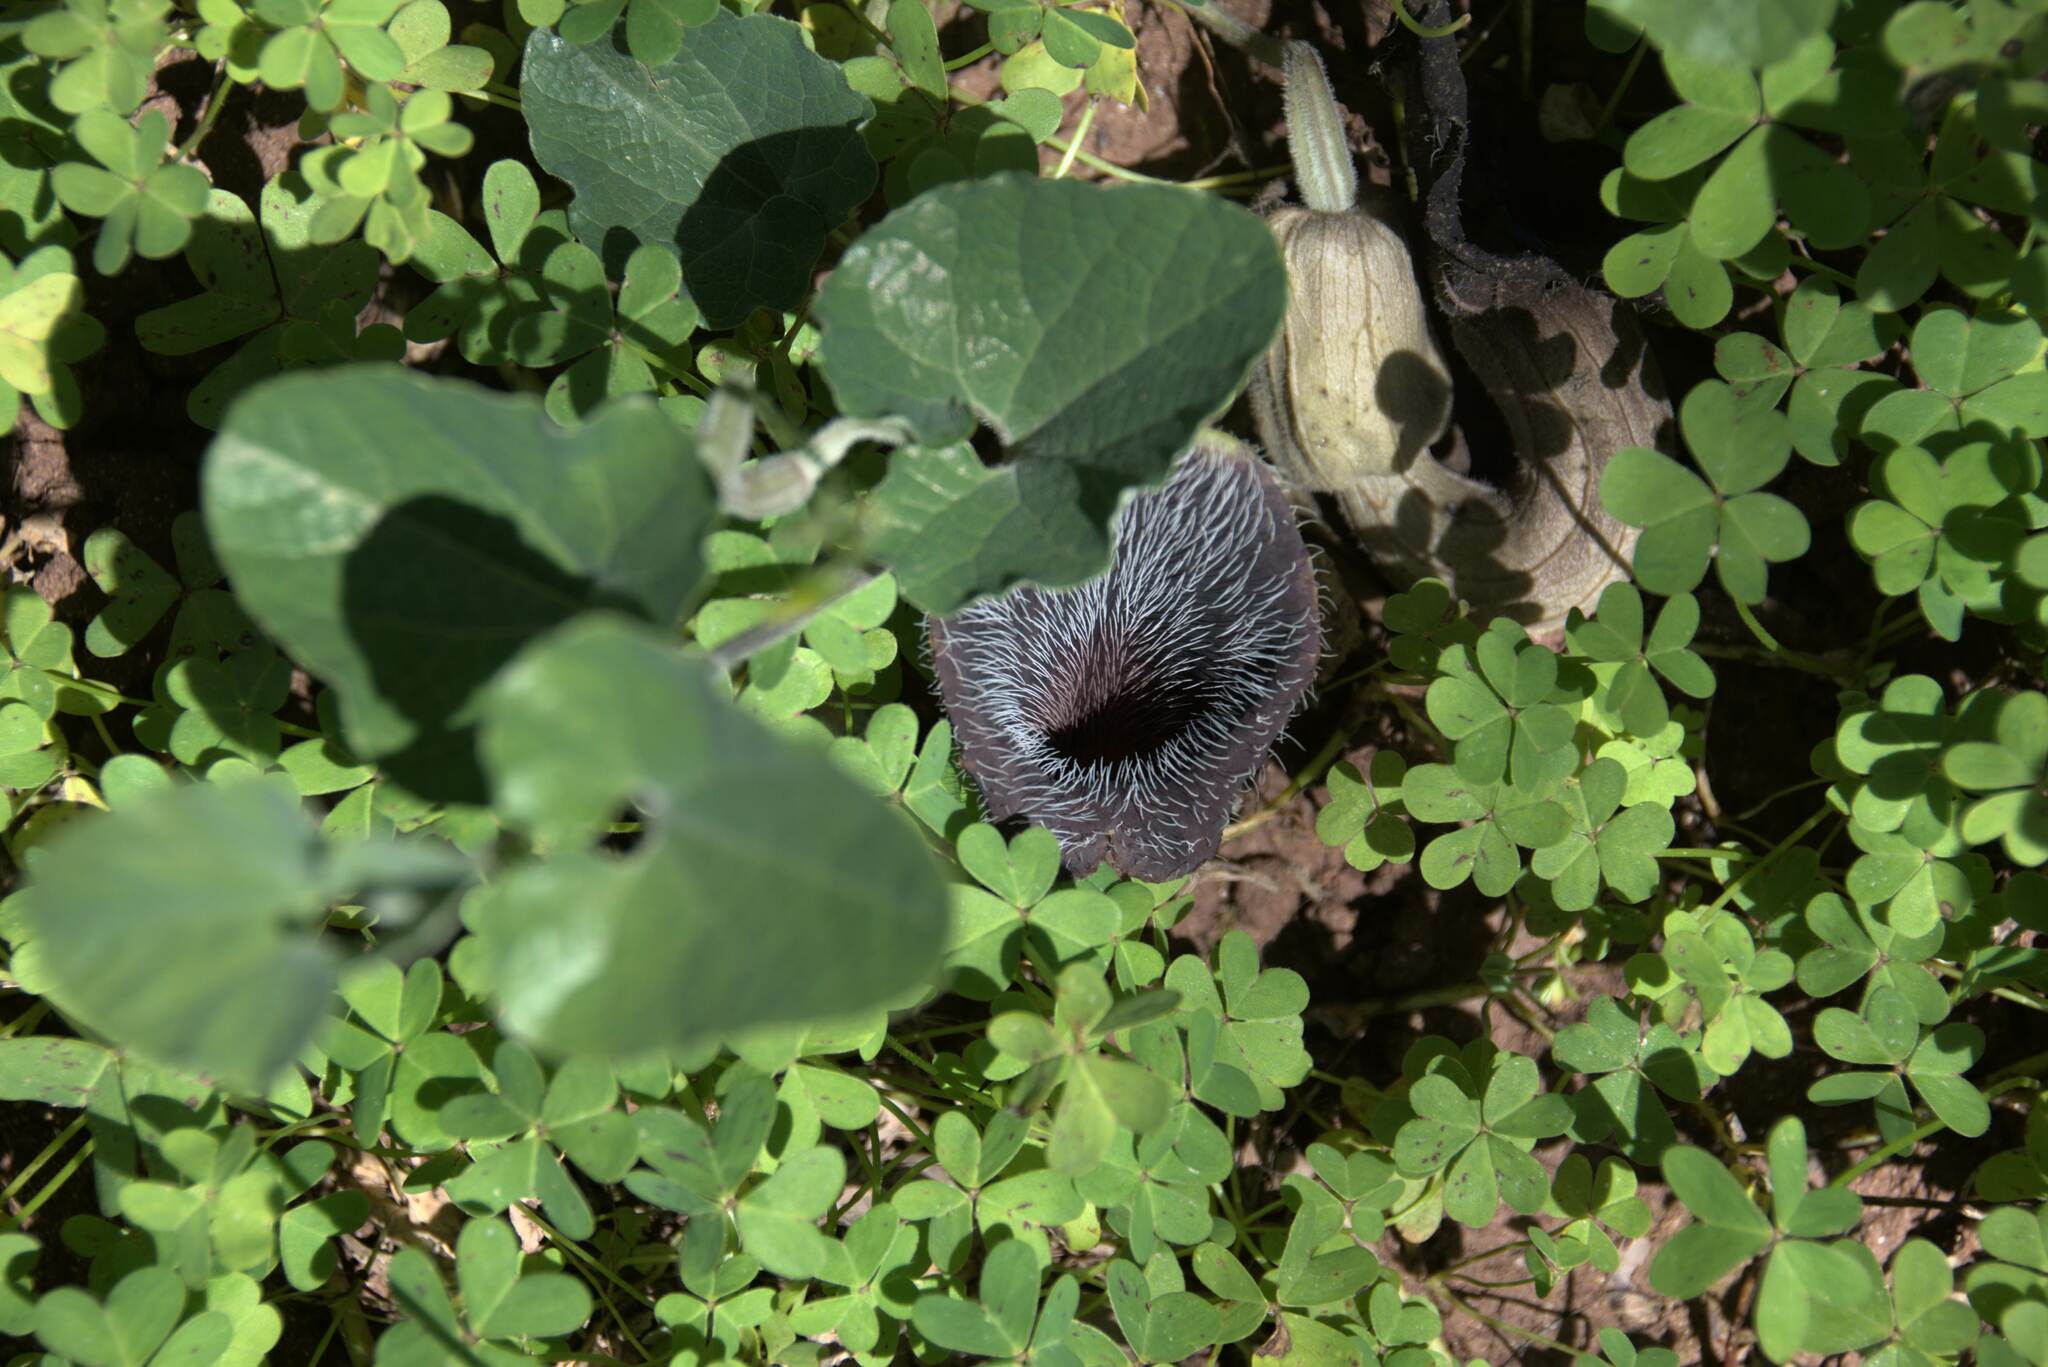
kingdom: Plantae
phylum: Tracheophyta
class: Magnoliopsida
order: Piperales
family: Aristolochiaceae
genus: Aristolochia
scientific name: Aristolochia cretica
